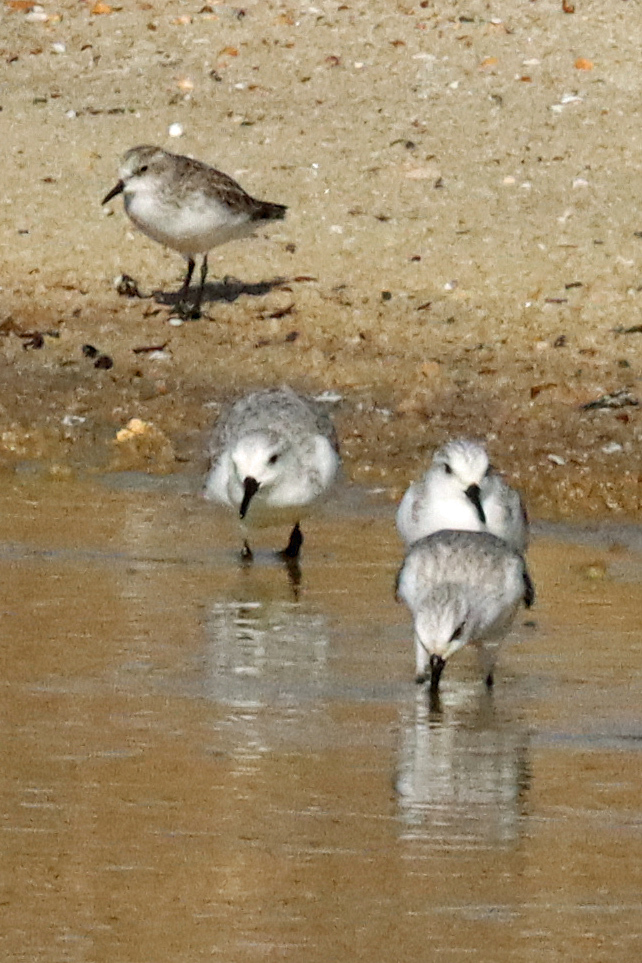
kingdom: Animalia
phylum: Chordata
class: Aves
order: Charadriiformes
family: Scolopacidae
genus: Calidris
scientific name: Calidris minuta
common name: Little stint
